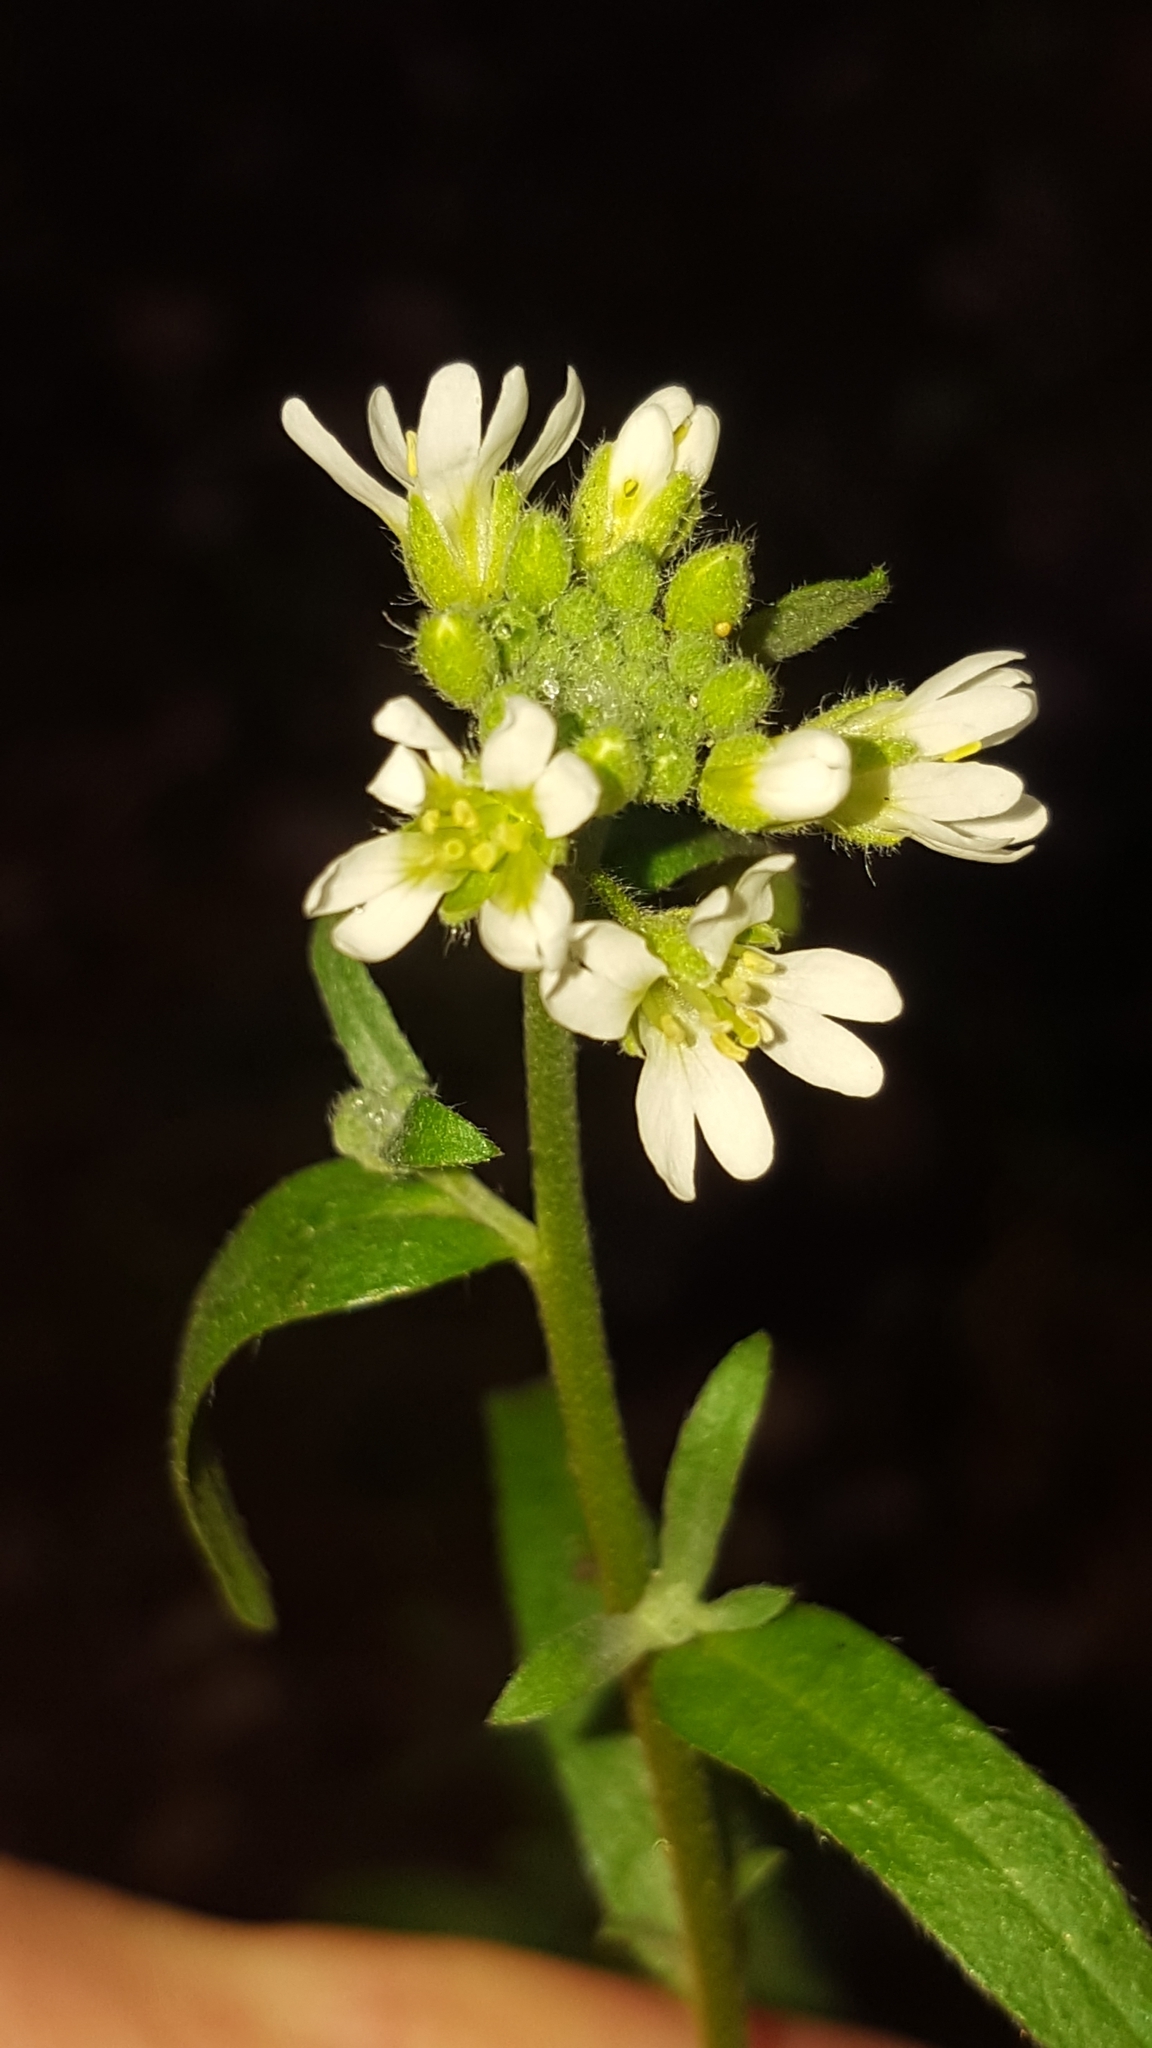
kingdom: Plantae
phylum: Tracheophyta
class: Magnoliopsida
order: Brassicales
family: Brassicaceae
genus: Berteroa
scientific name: Berteroa incana
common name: Hoary alison
